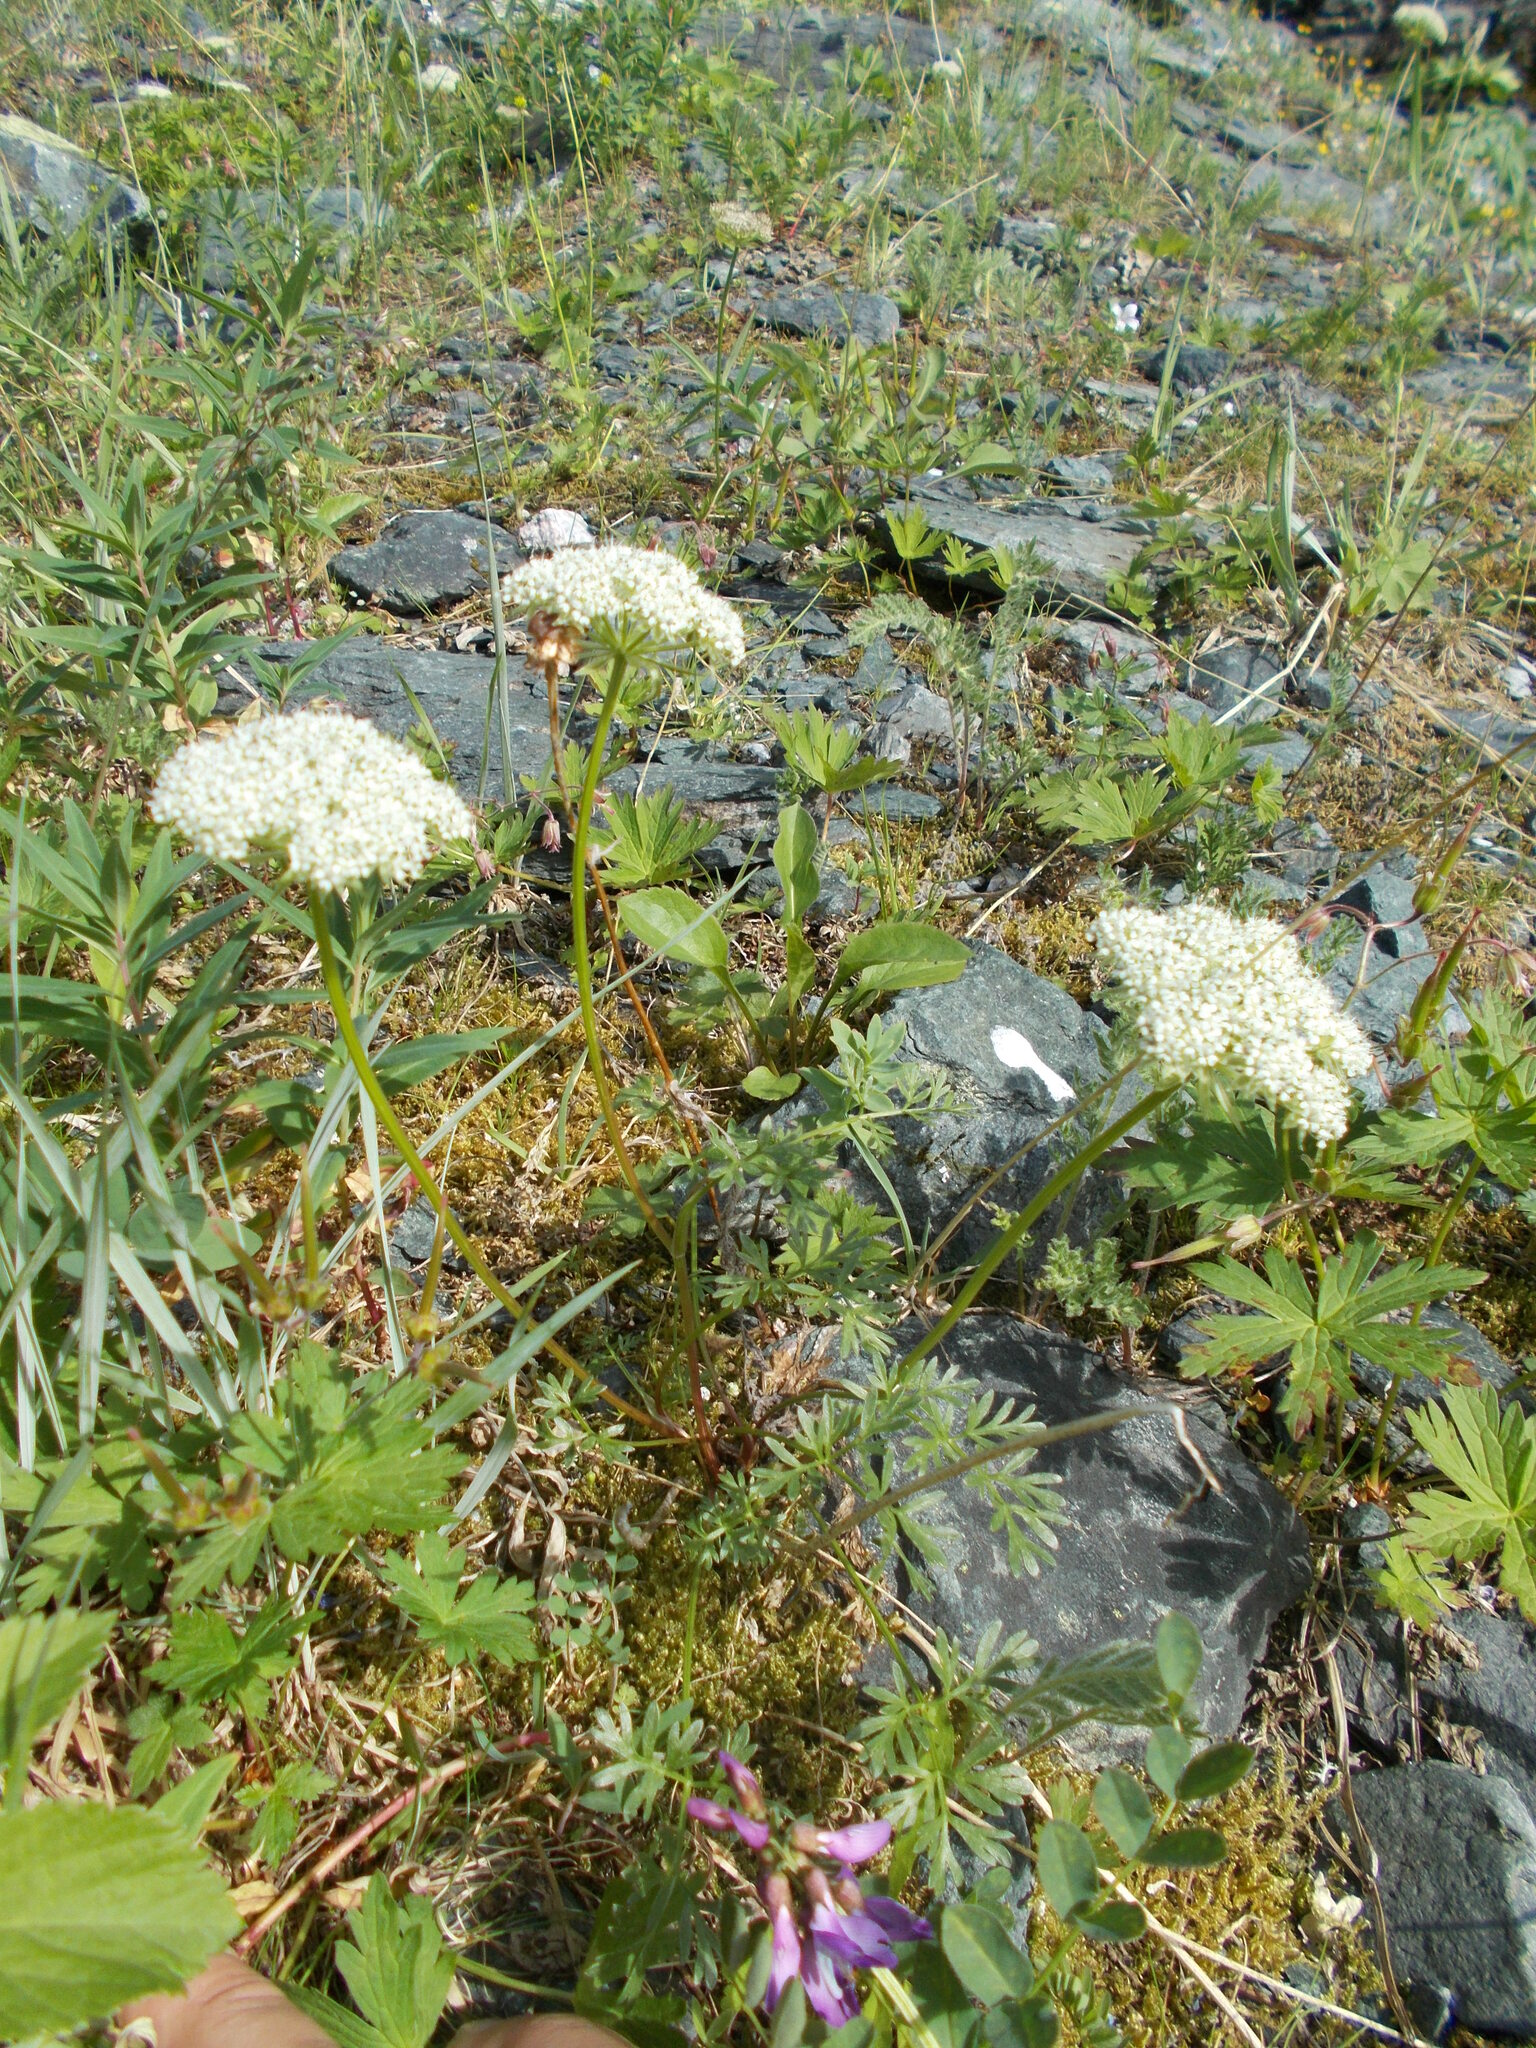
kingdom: Plantae
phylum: Tracheophyta
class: Magnoliopsida
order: Apiales
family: Apiaceae
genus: Pachypleurum
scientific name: Pachypleurum mutellinoides
